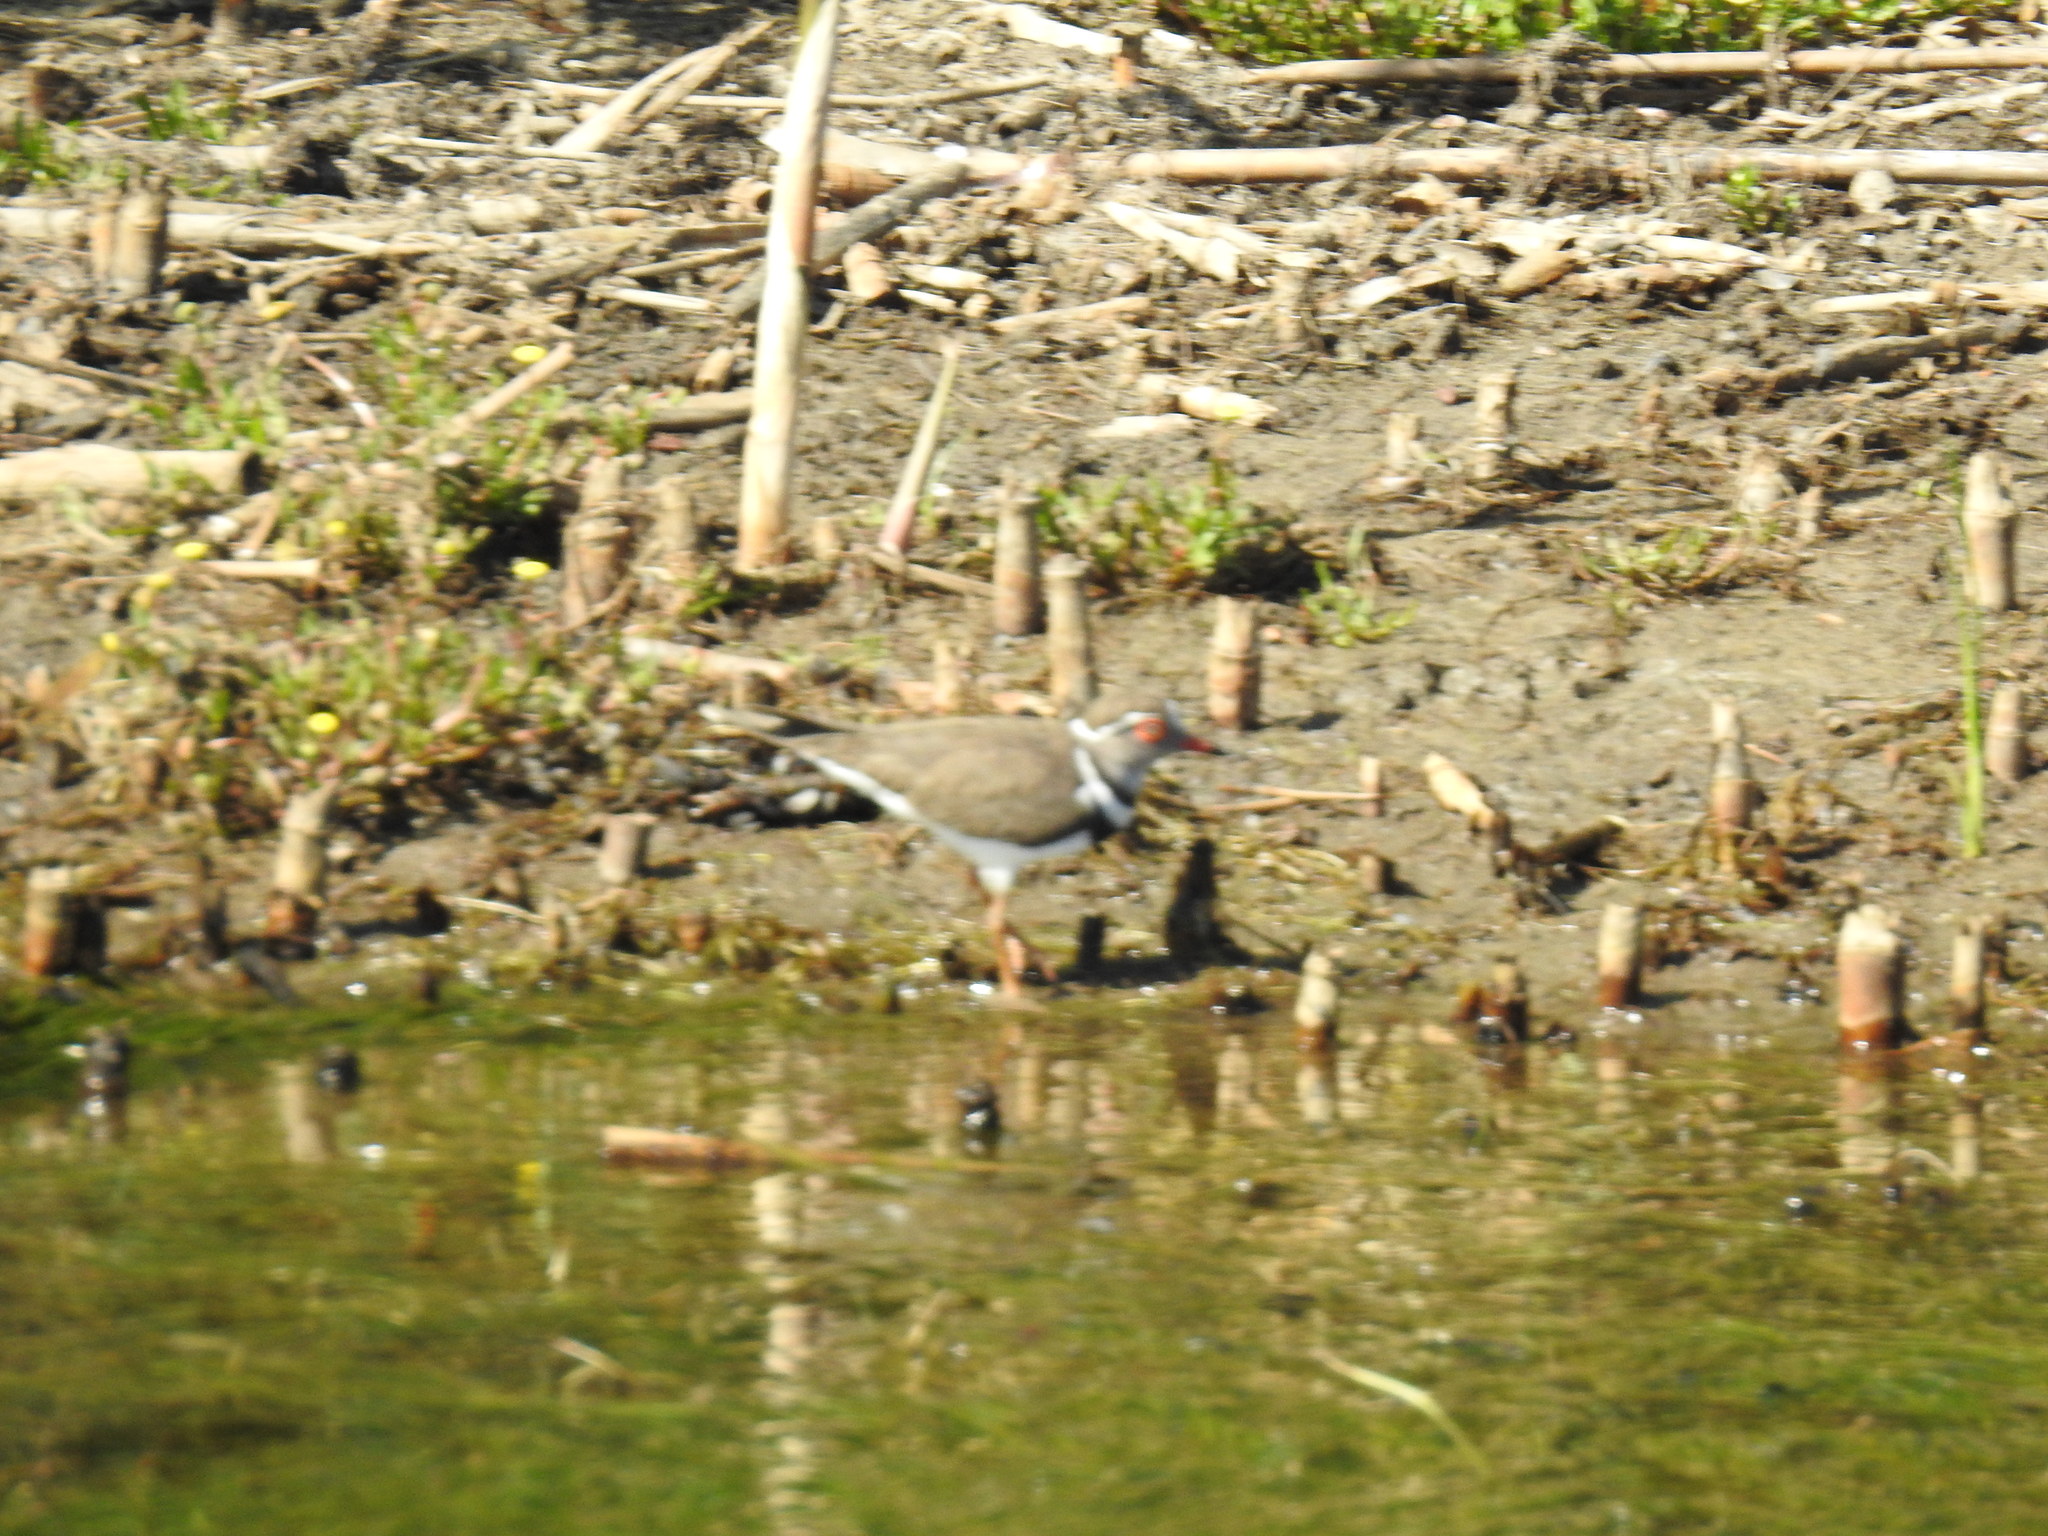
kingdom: Animalia
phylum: Chordata
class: Aves
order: Charadriiformes
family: Charadriidae
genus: Charadrius
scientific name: Charadrius tricollaris
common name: Three-banded plover
